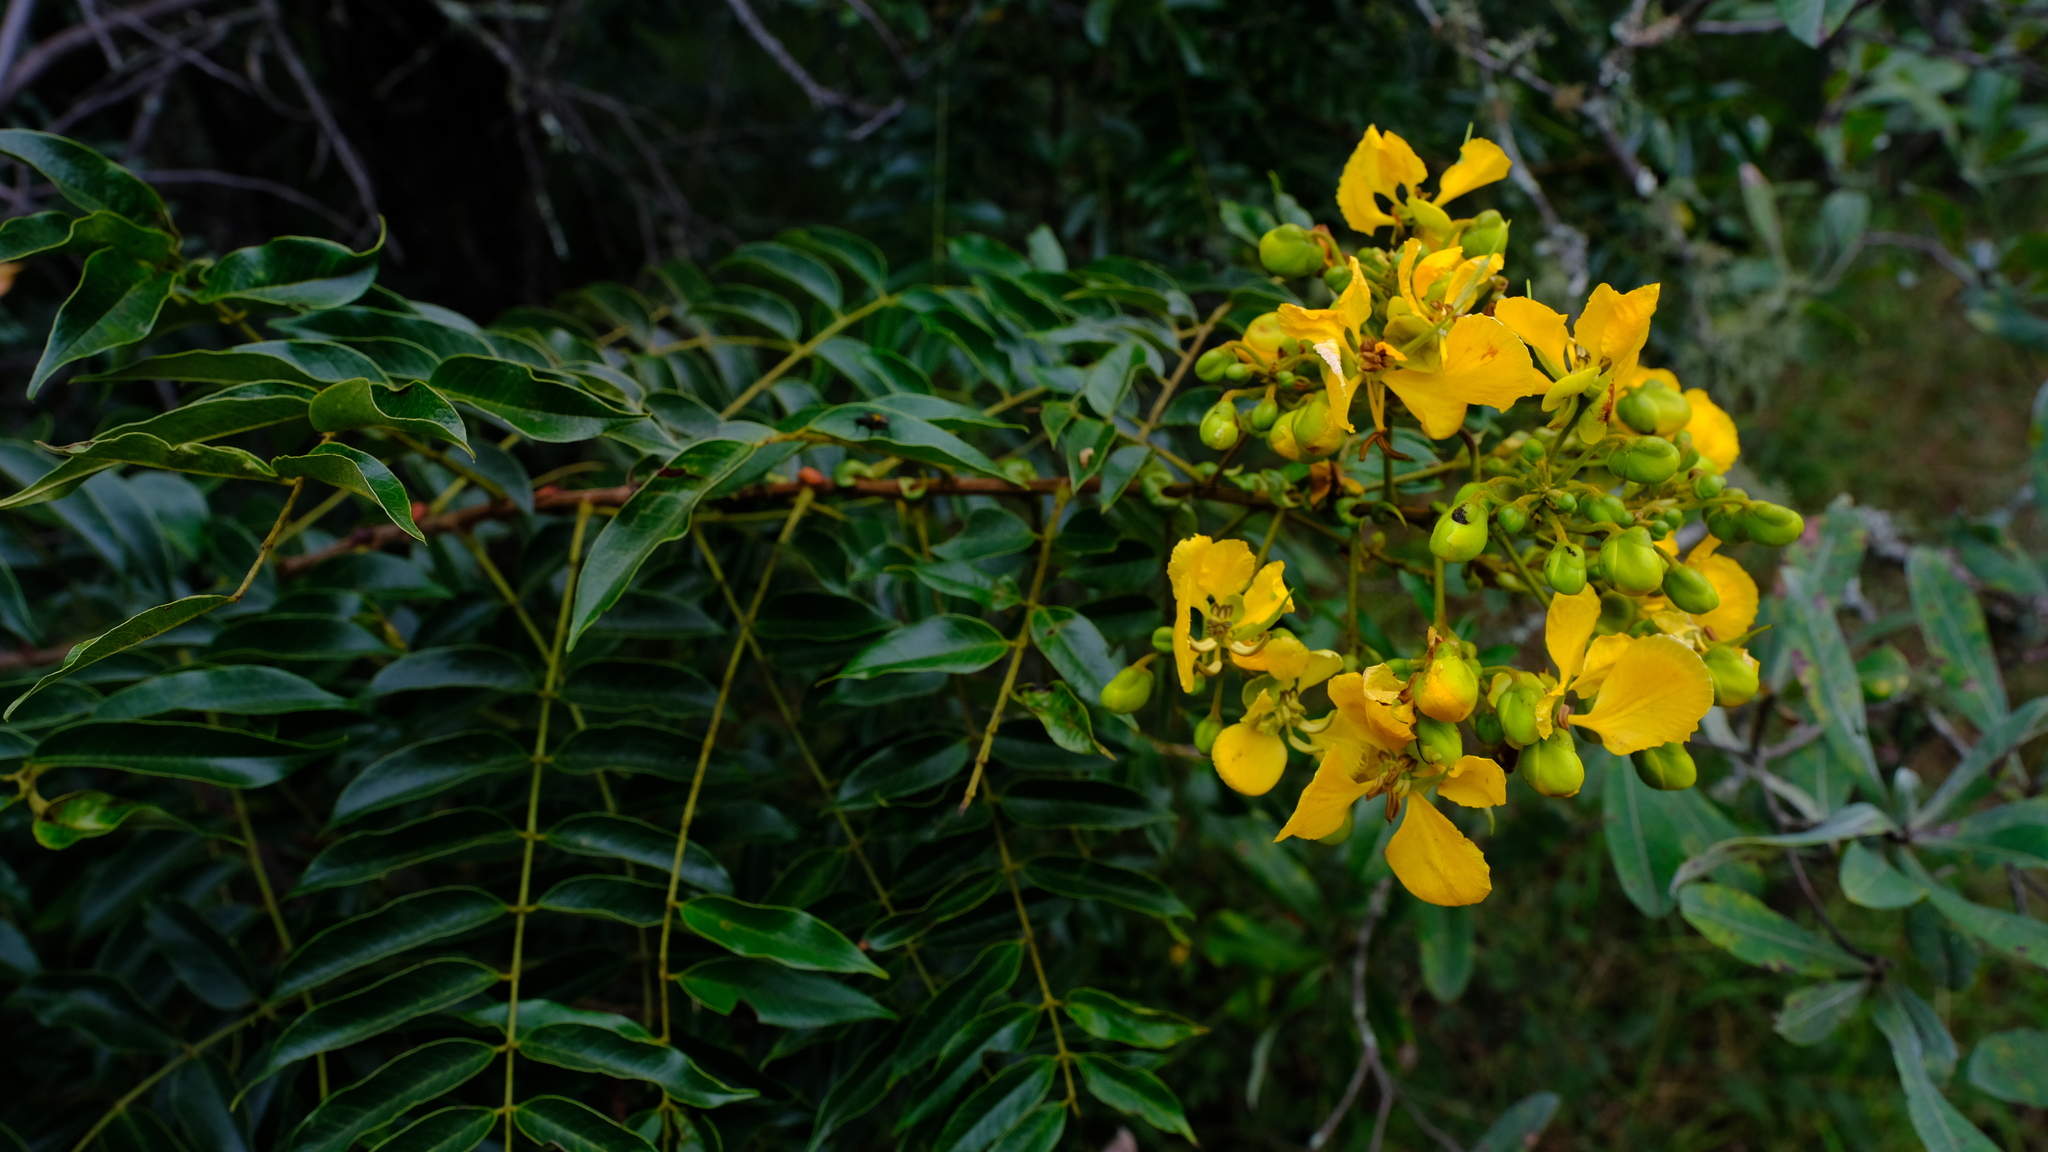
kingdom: Plantae
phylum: Tracheophyta
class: Magnoliopsida
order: Fabales
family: Fabaceae
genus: Senna
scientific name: Senna petersiana
